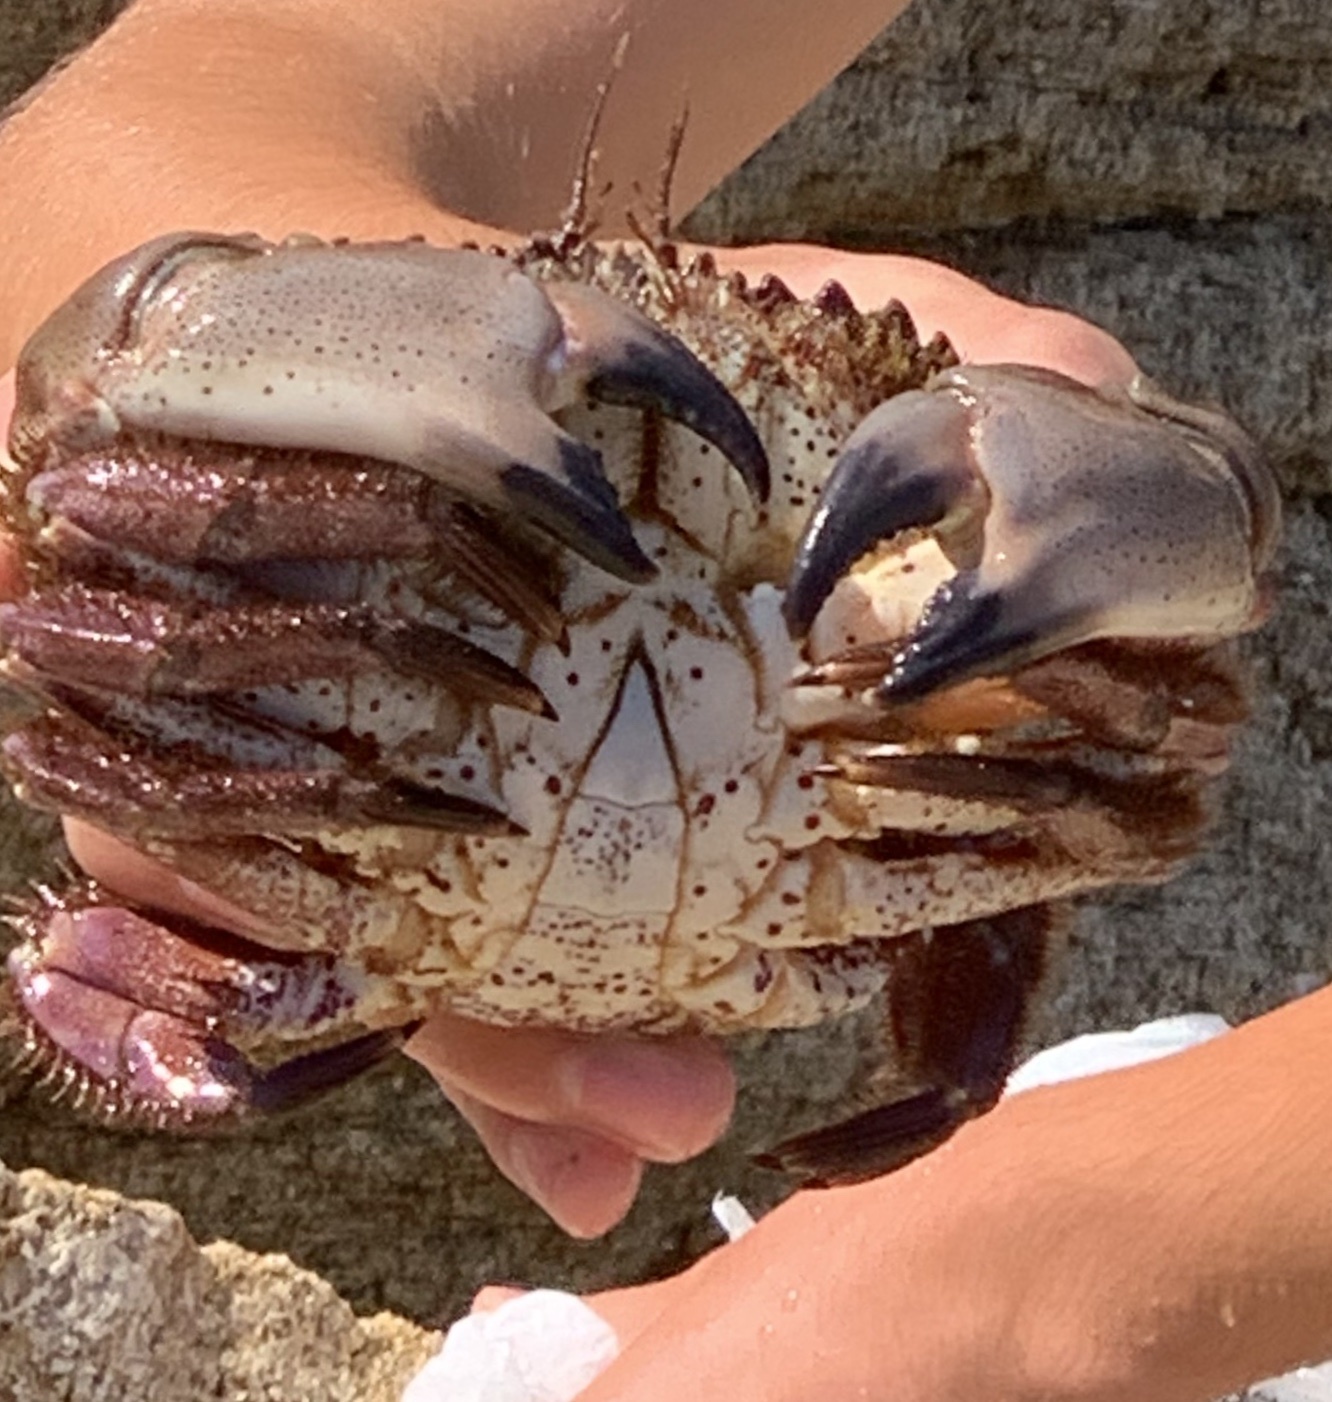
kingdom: Animalia
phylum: Arthropoda
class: Malacostraca
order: Decapoda
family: Cancridae
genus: Romaleon
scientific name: Romaleon antennarium
